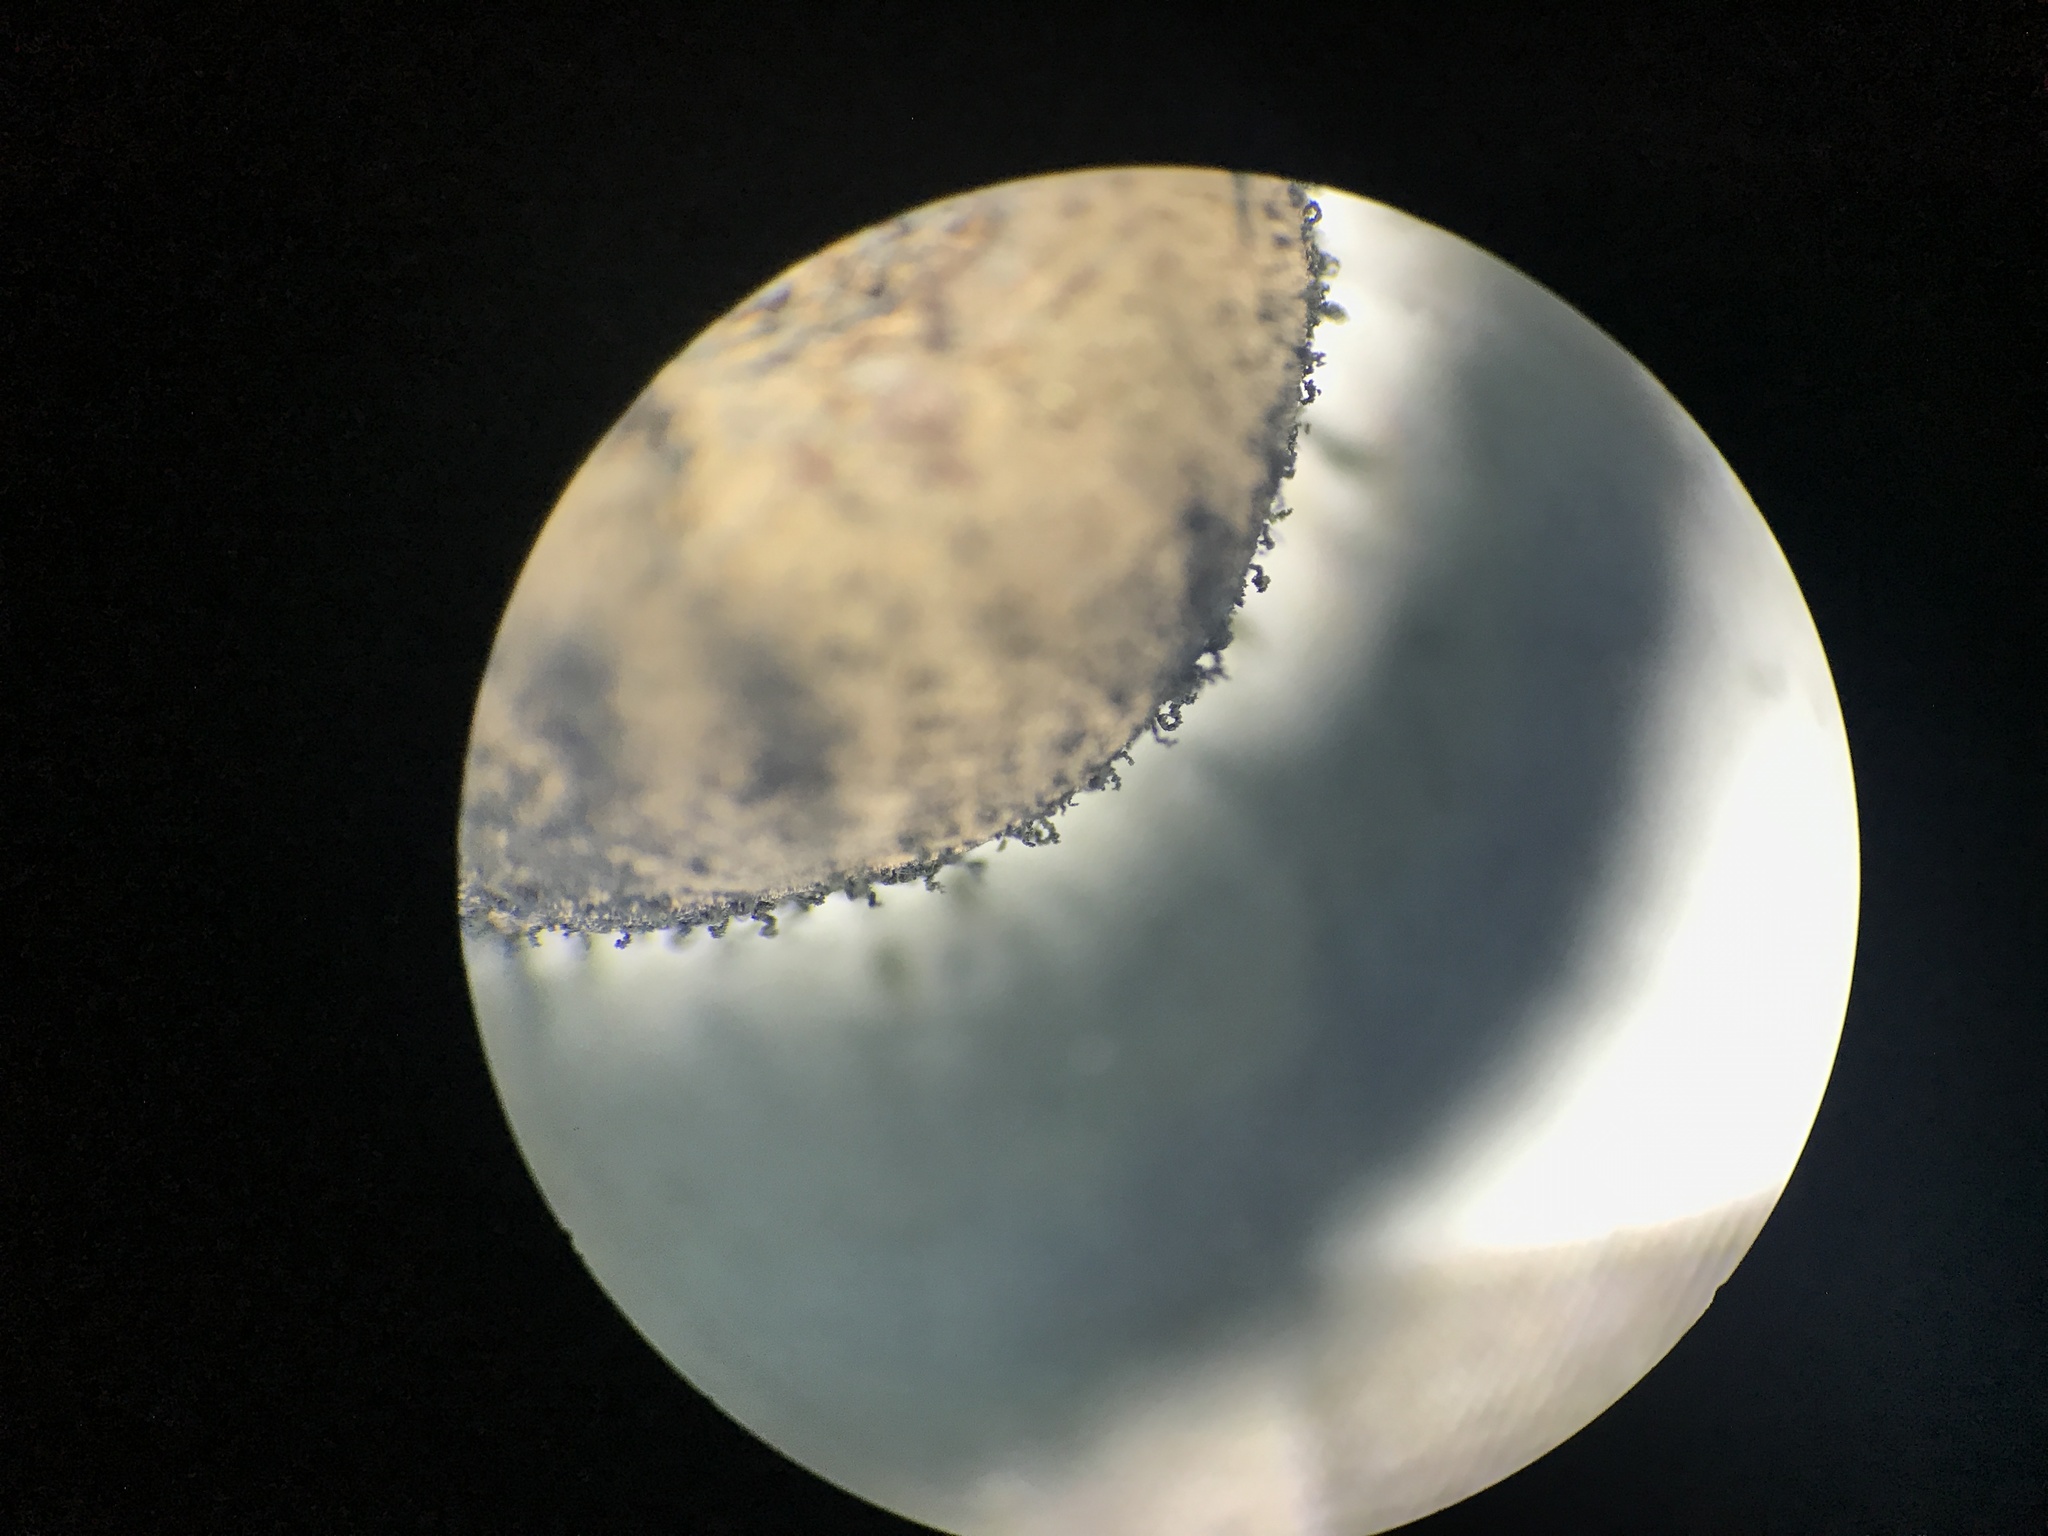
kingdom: Fungi
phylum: Ascomycota
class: Sordariomycetes
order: Xylariales
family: Hypoxylaceae
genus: Daldinia
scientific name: Daldinia childiae
